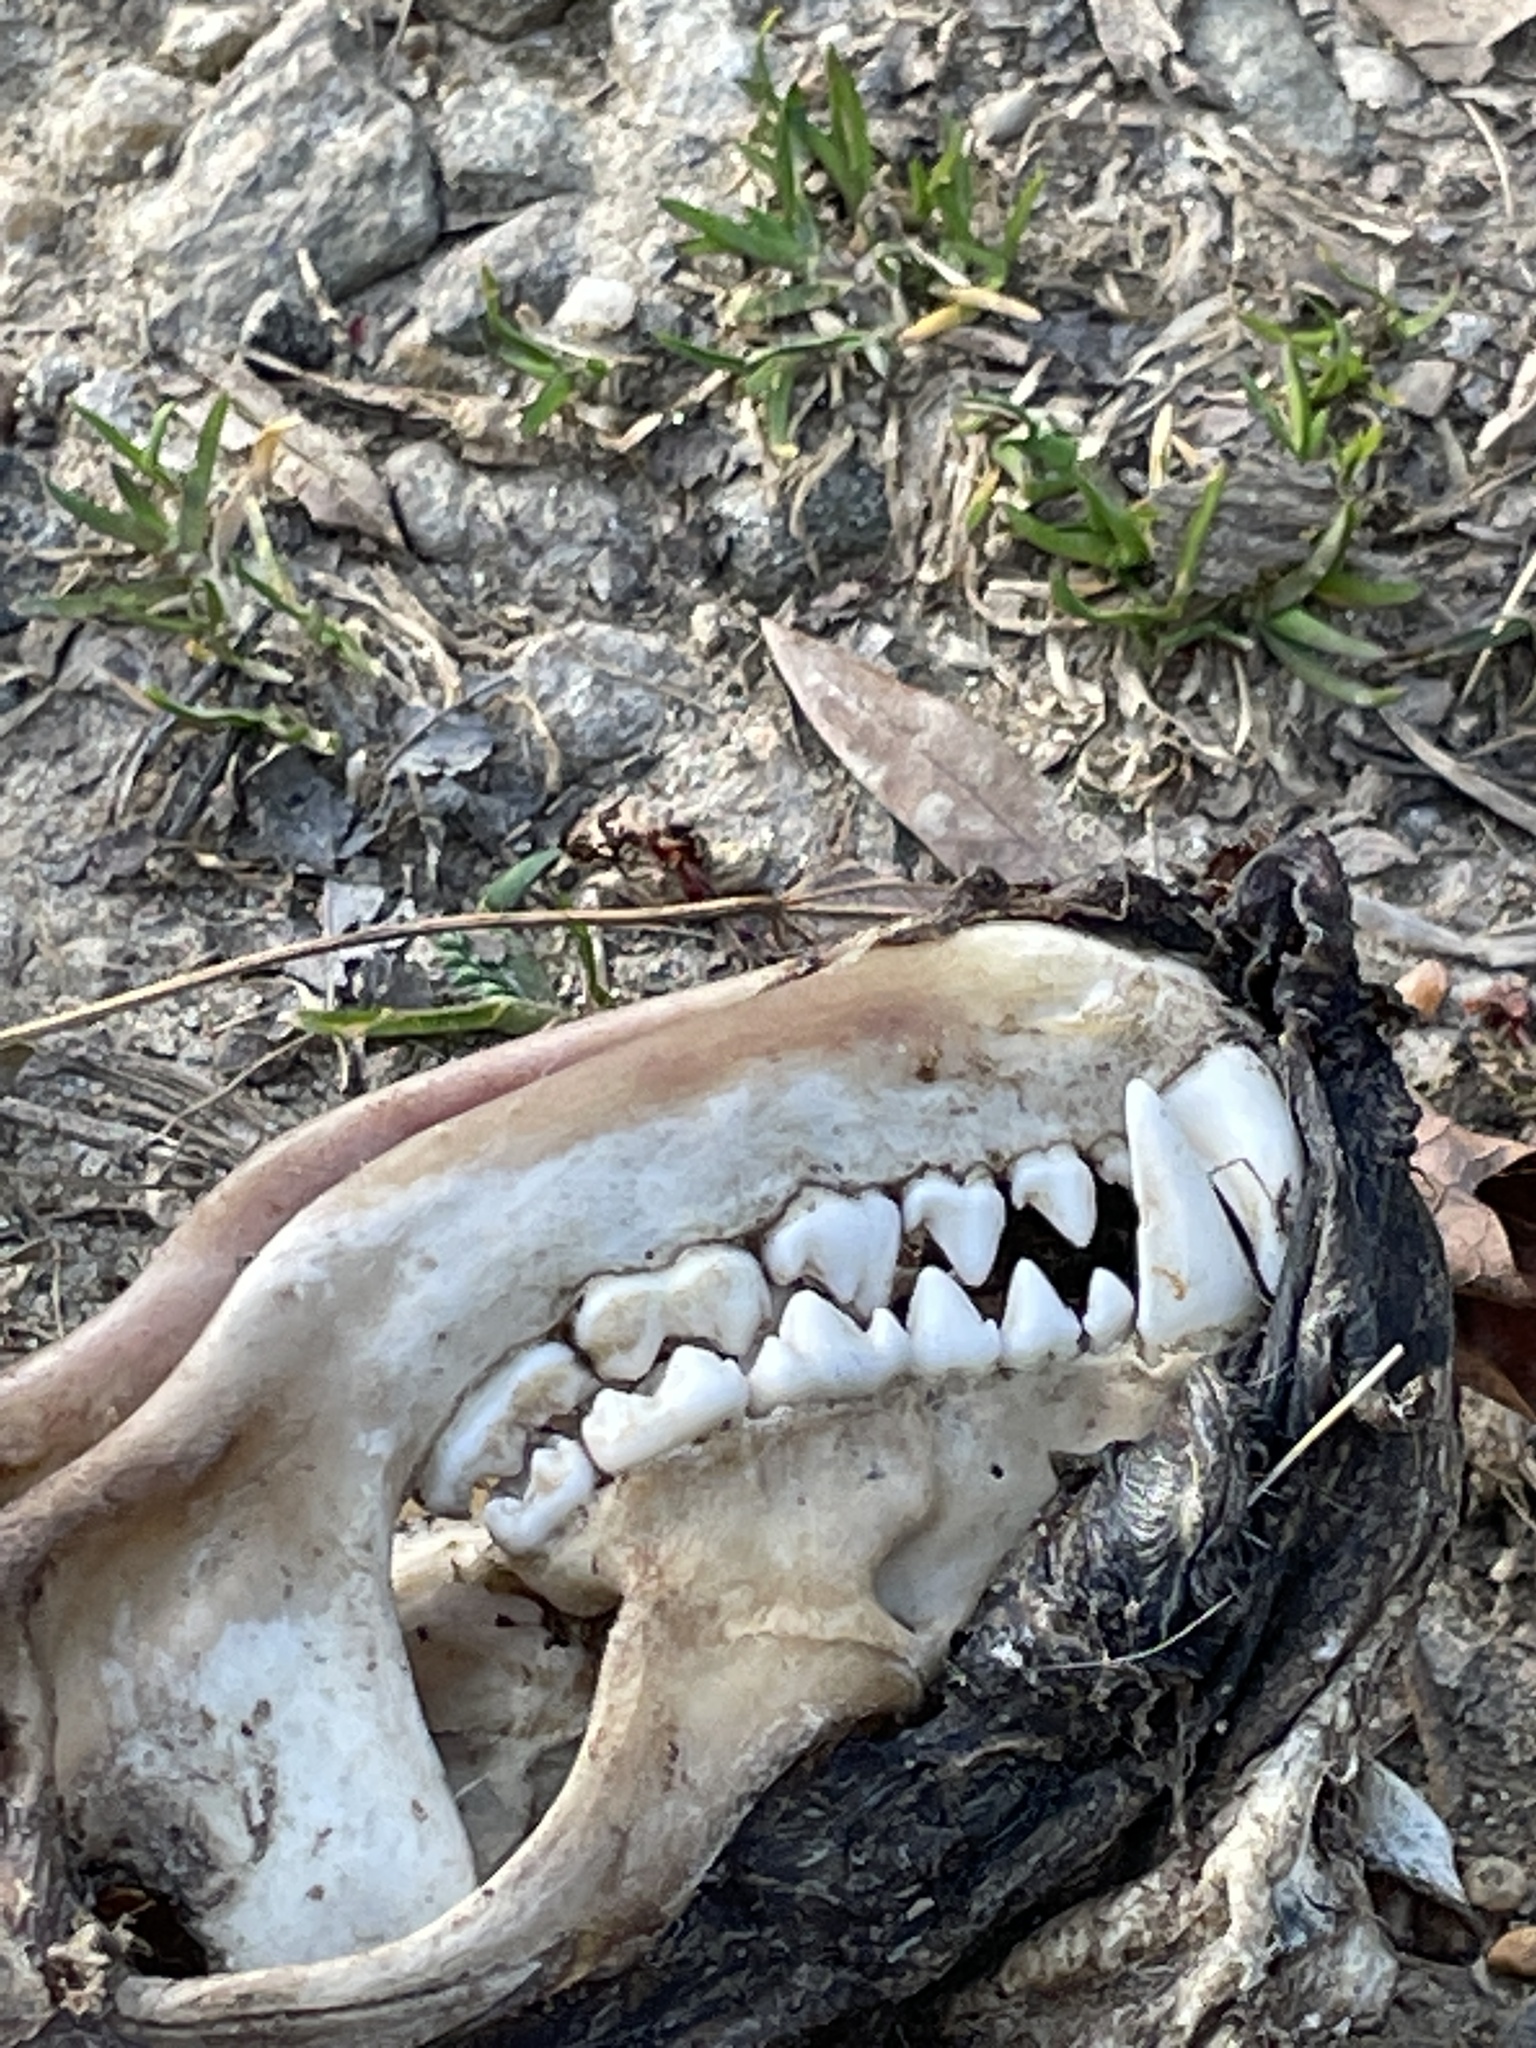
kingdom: Animalia
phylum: Chordata
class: Mammalia
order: Carnivora
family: Procyonidae
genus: Procyon
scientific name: Procyon lotor
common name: Raccoon
